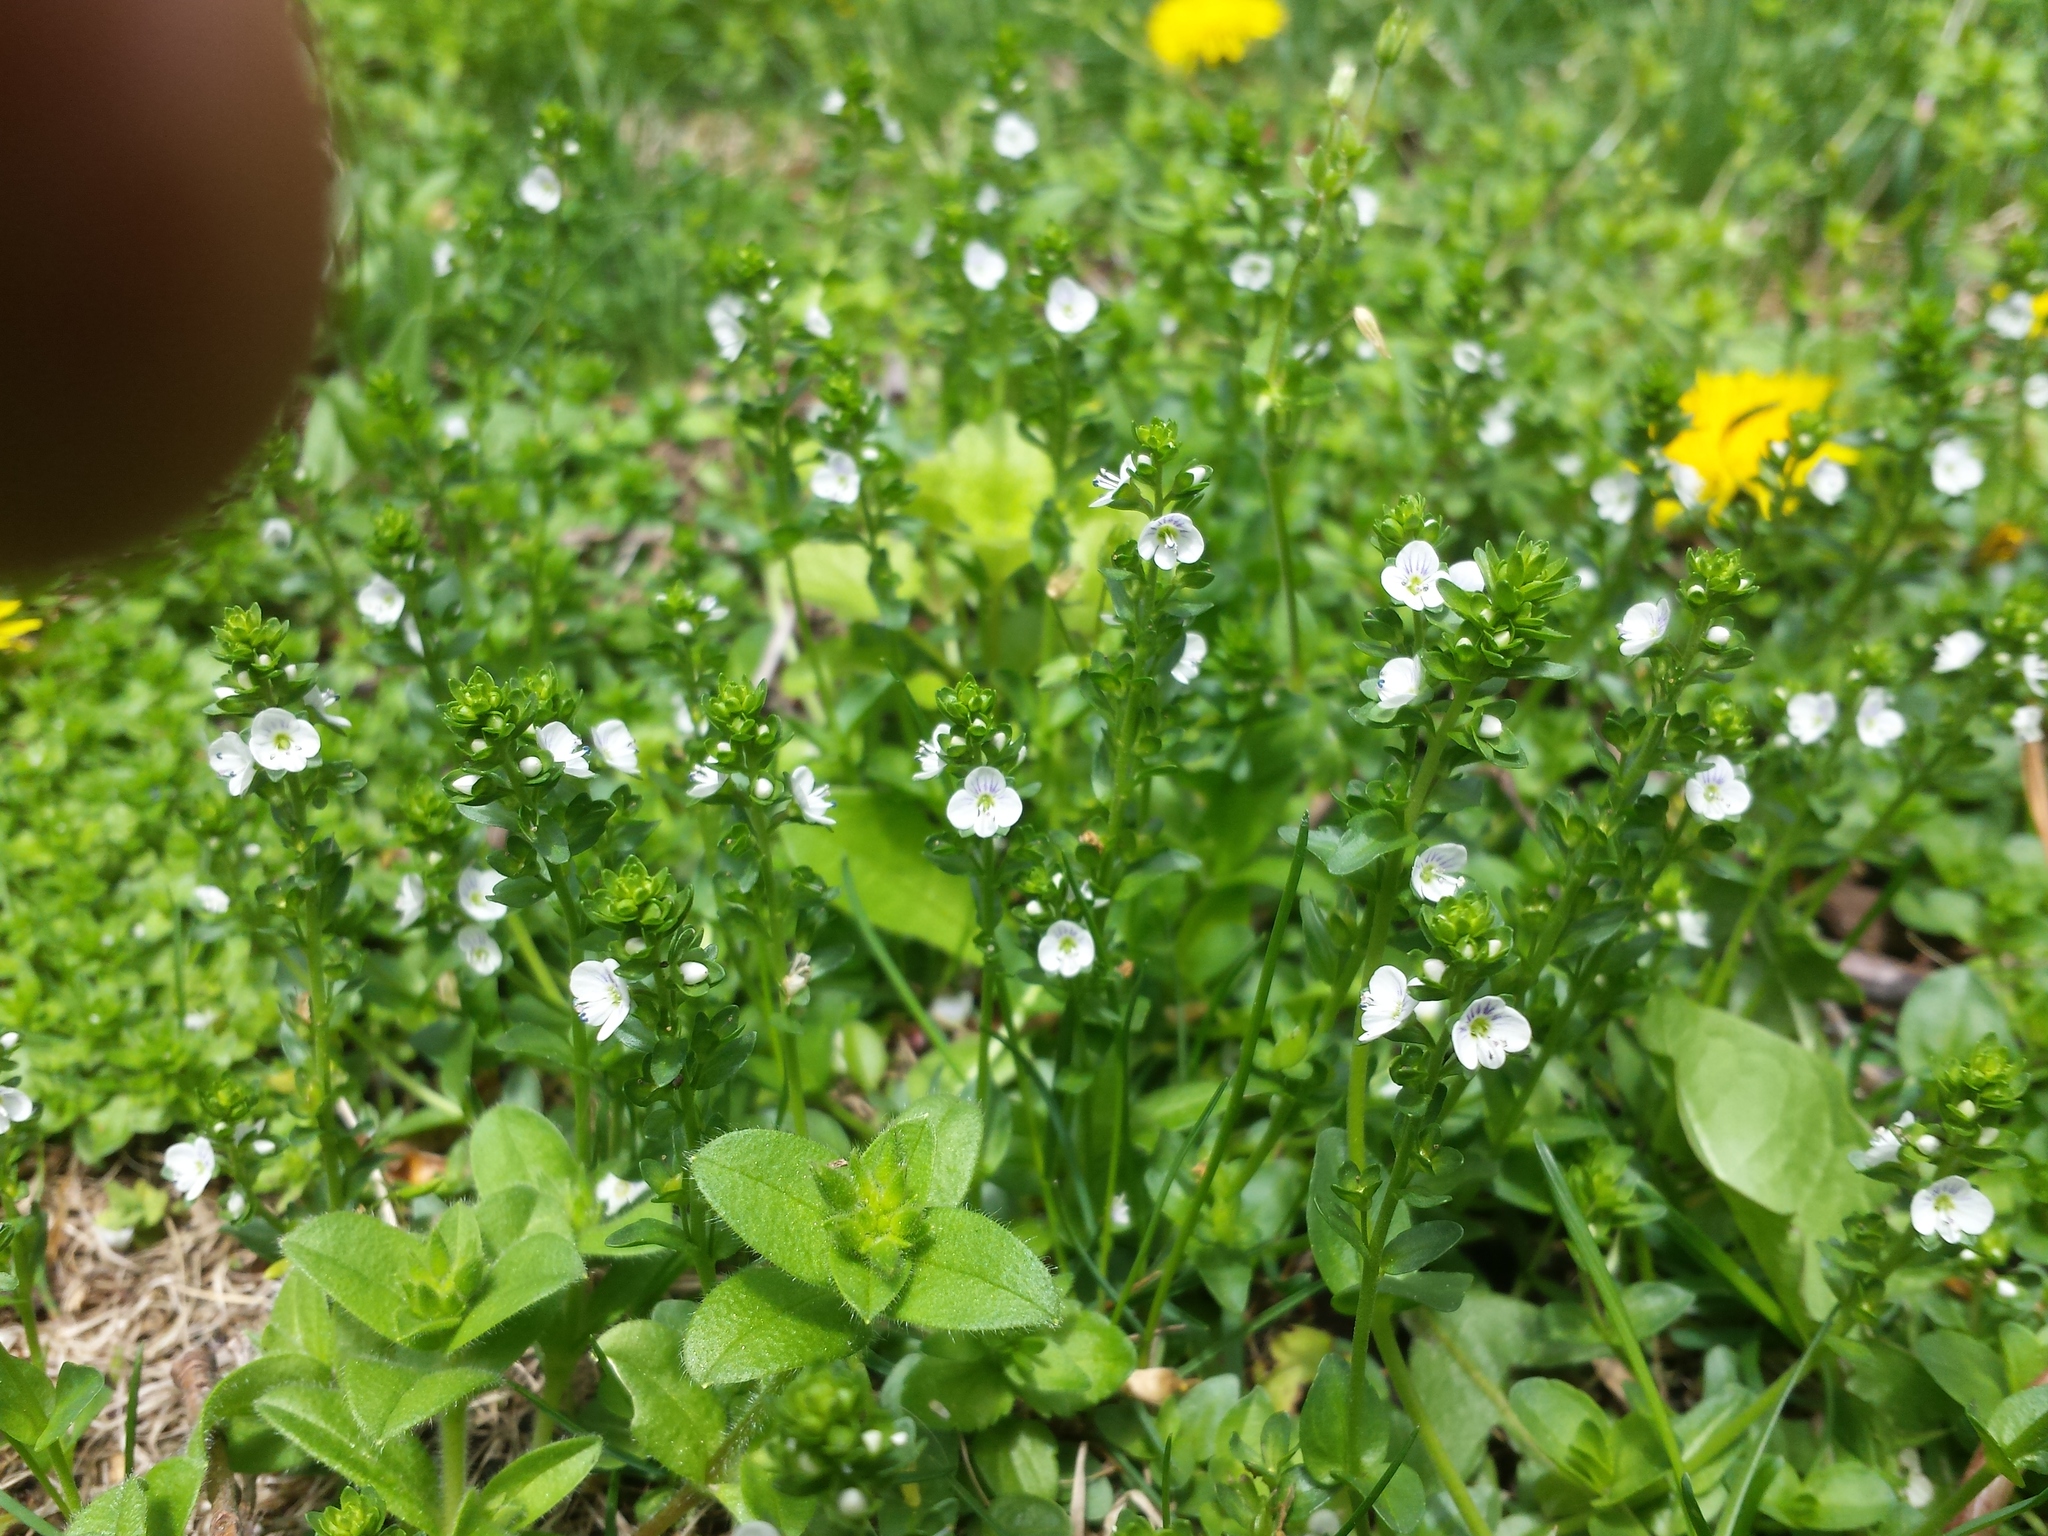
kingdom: Plantae
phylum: Tracheophyta
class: Magnoliopsida
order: Lamiales
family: Plantaginaceae
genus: Veronica
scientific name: Veronica serpyllifolia
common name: Thyme-leaved speedwell
